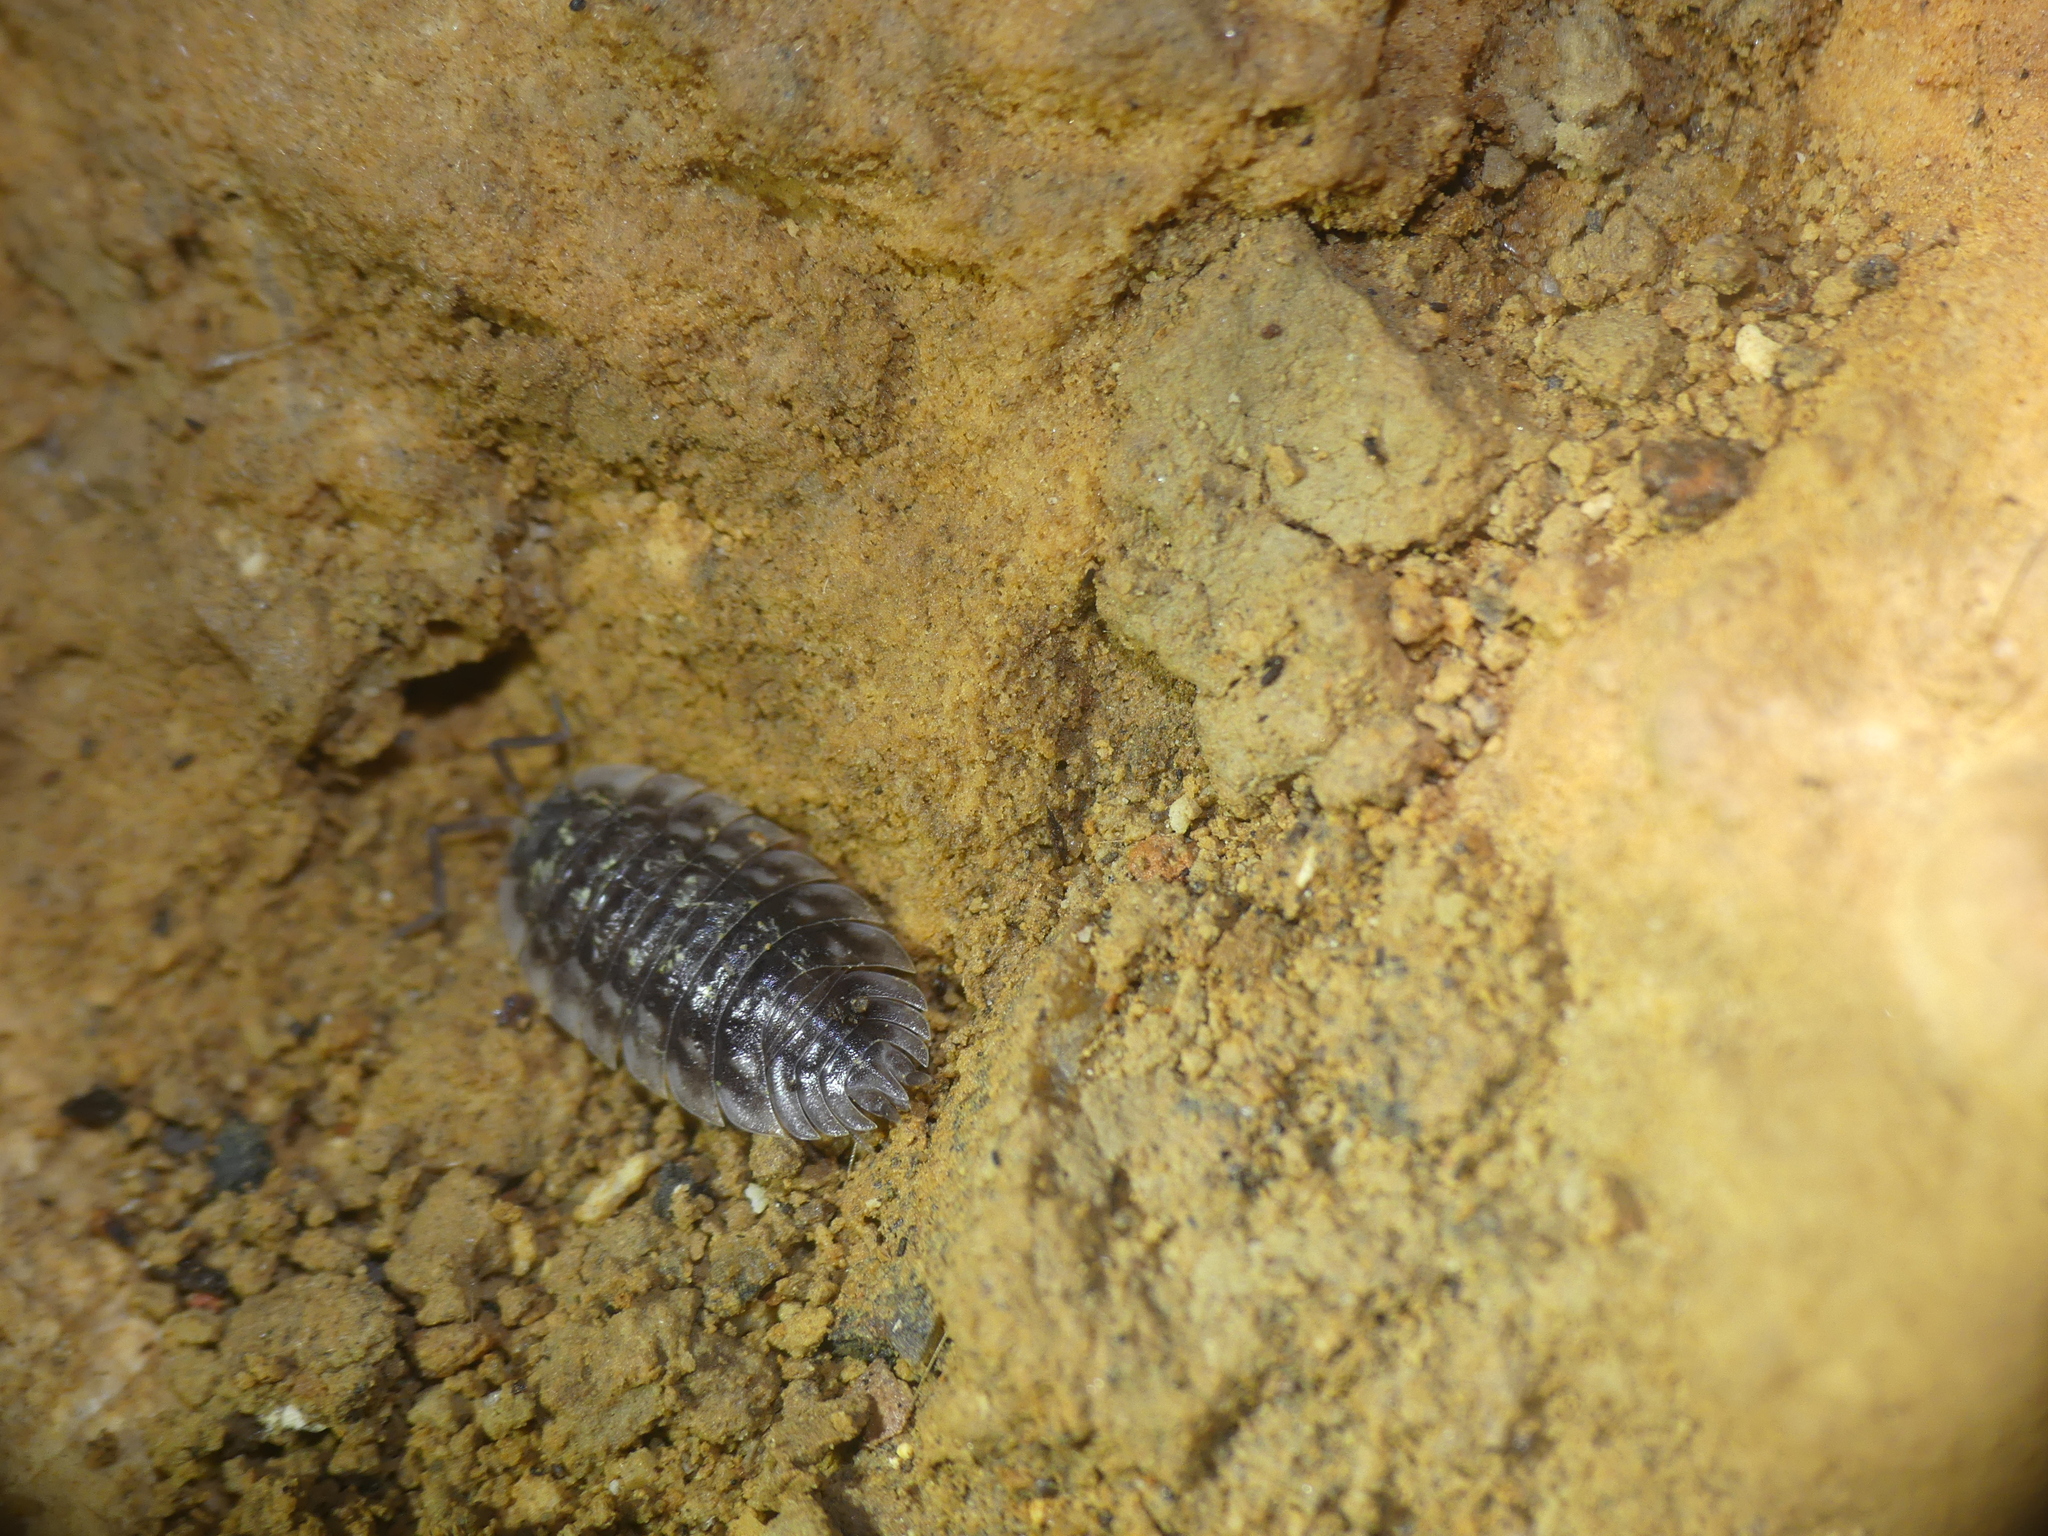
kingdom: Animalia
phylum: Arthropoda
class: Malacostraca
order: Isopoda
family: Oniscidae
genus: Oniscus
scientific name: Oniscus asellus
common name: Common shiny woodlouse
